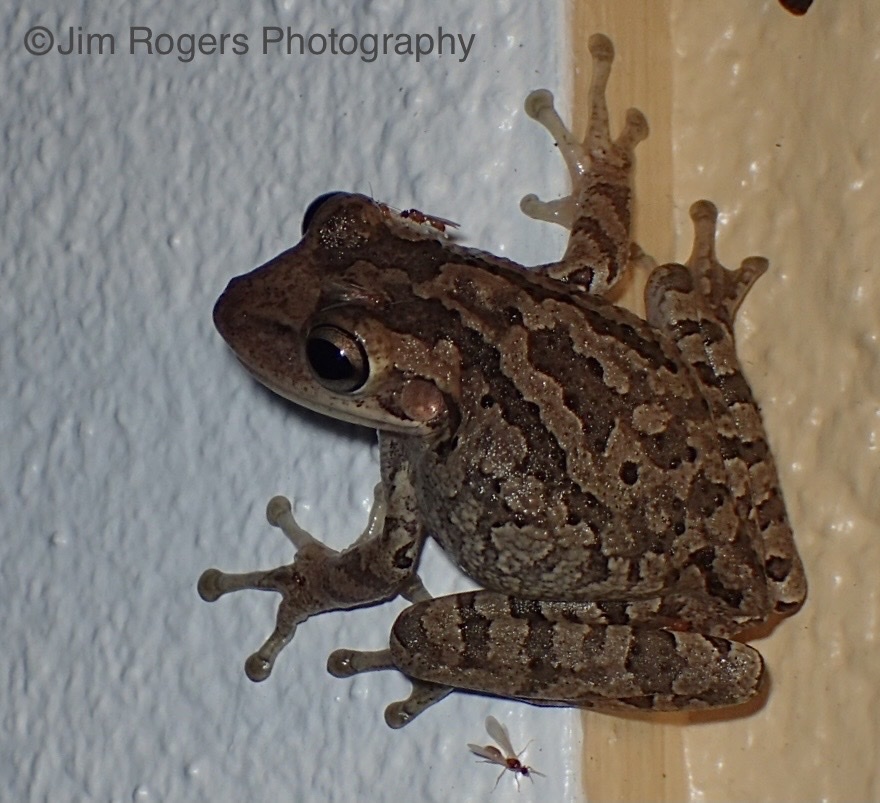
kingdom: Animalia
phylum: Chordata
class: Amphibia
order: Anura
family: Hylidae
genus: Osteopilus
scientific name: Osteopilus septentrionalis
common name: Cuban treefrog
